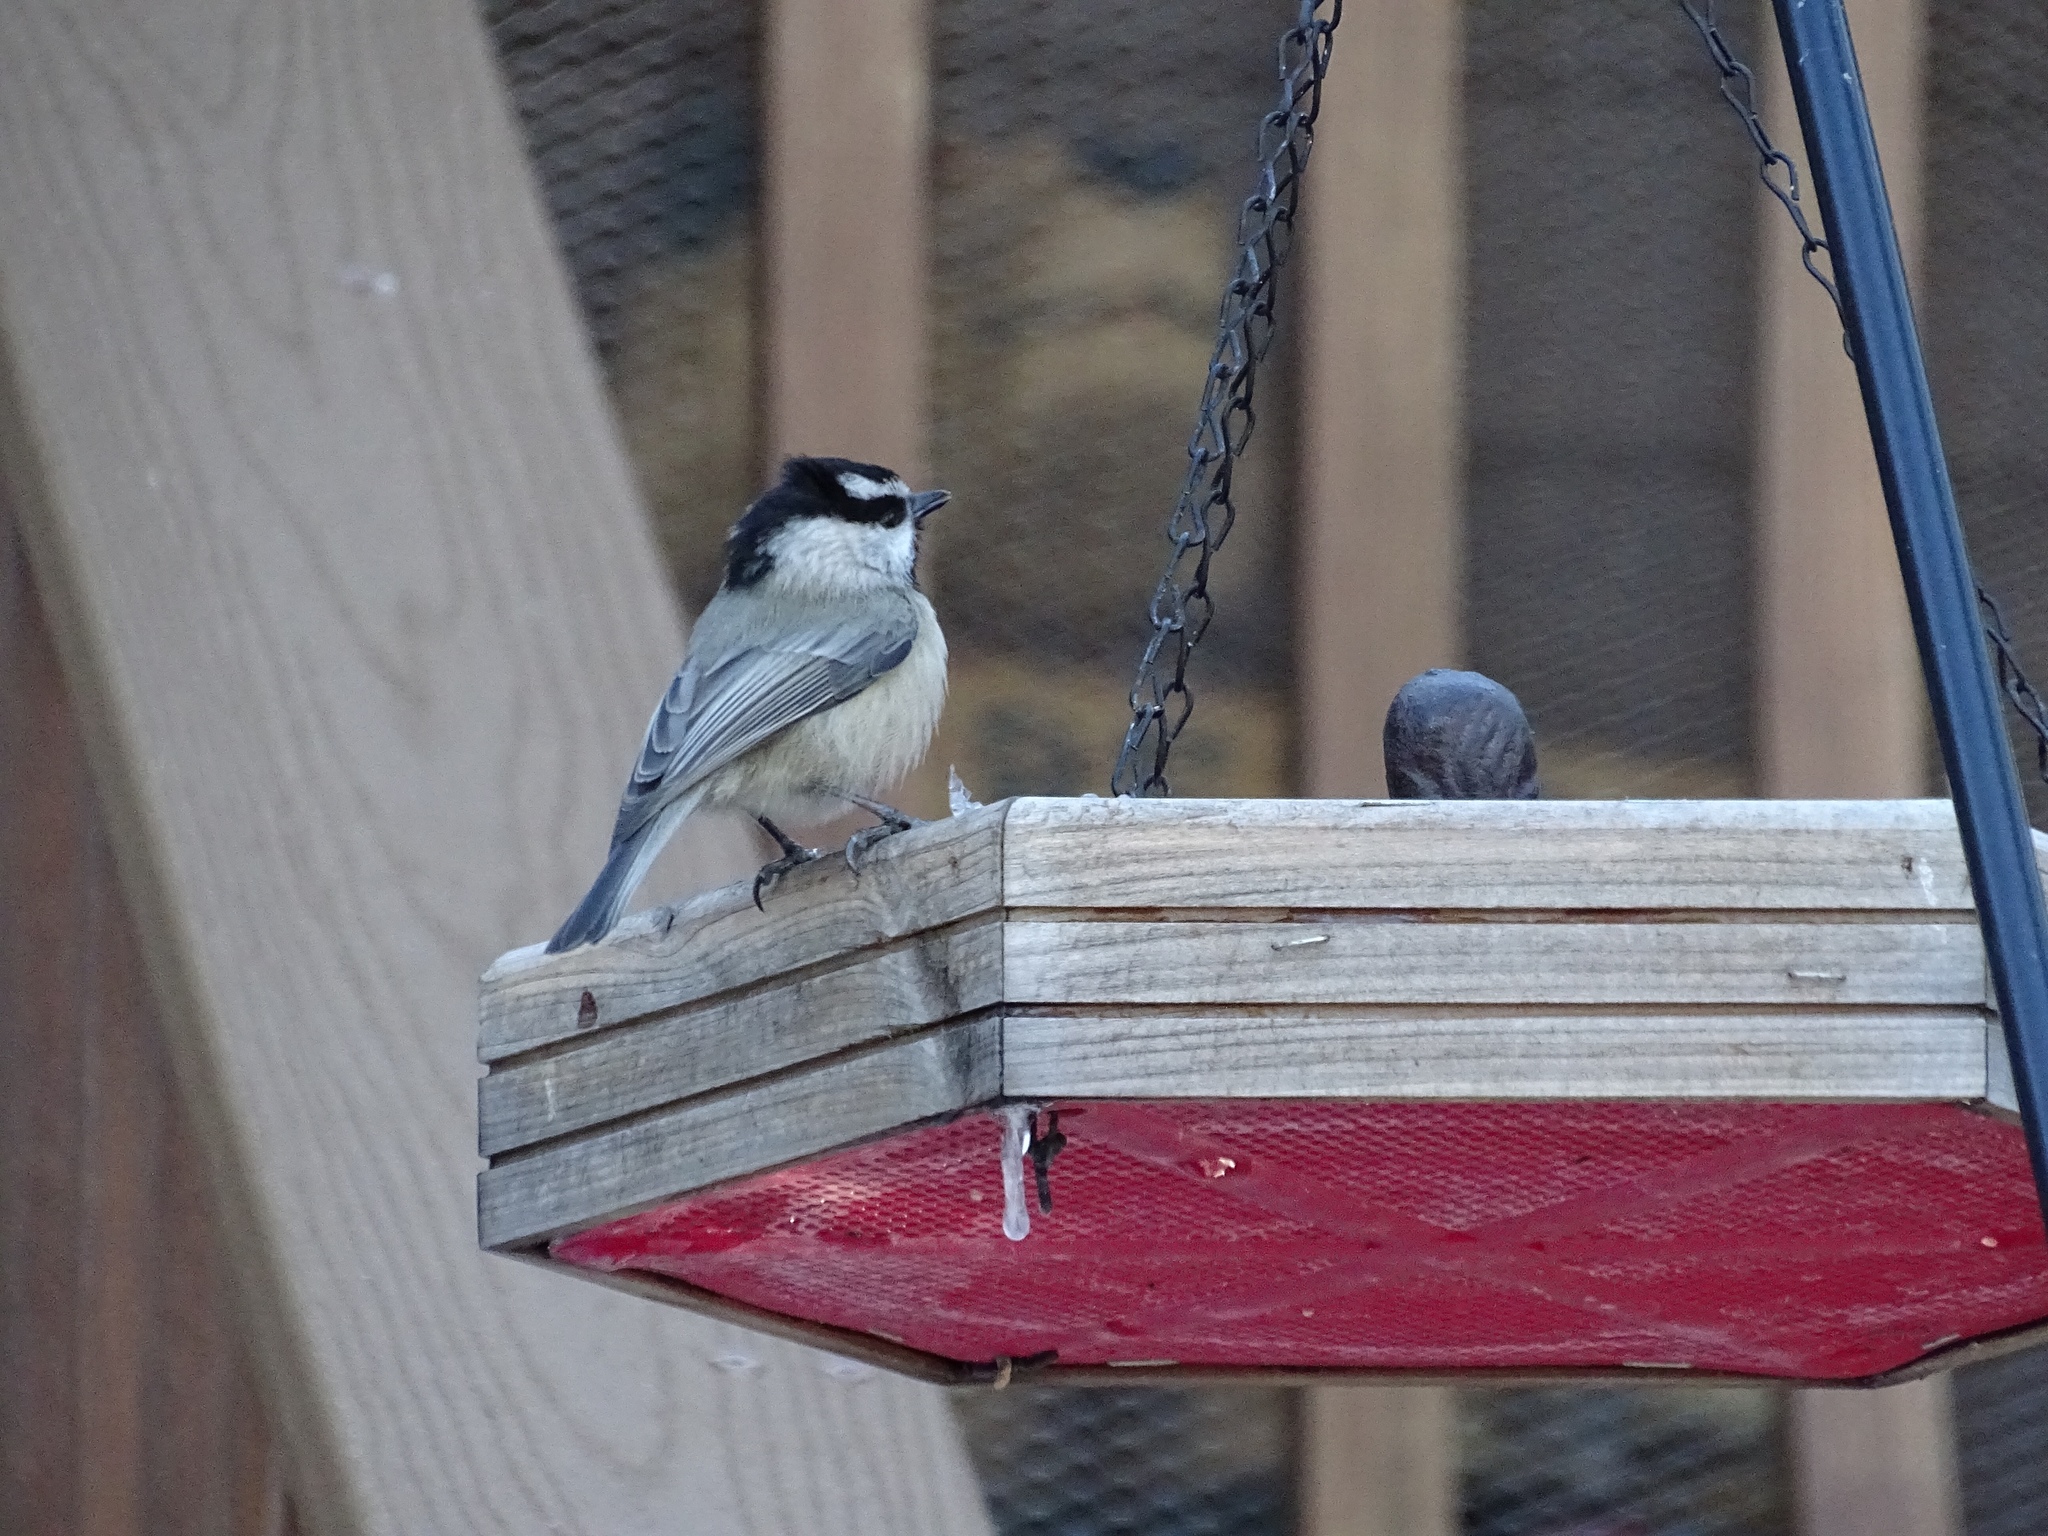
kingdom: Animalia
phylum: Chordata
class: Aves
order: Passeriformes
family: Paridae
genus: Poecile
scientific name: Poecile gambeli
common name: Mountain chickadee
